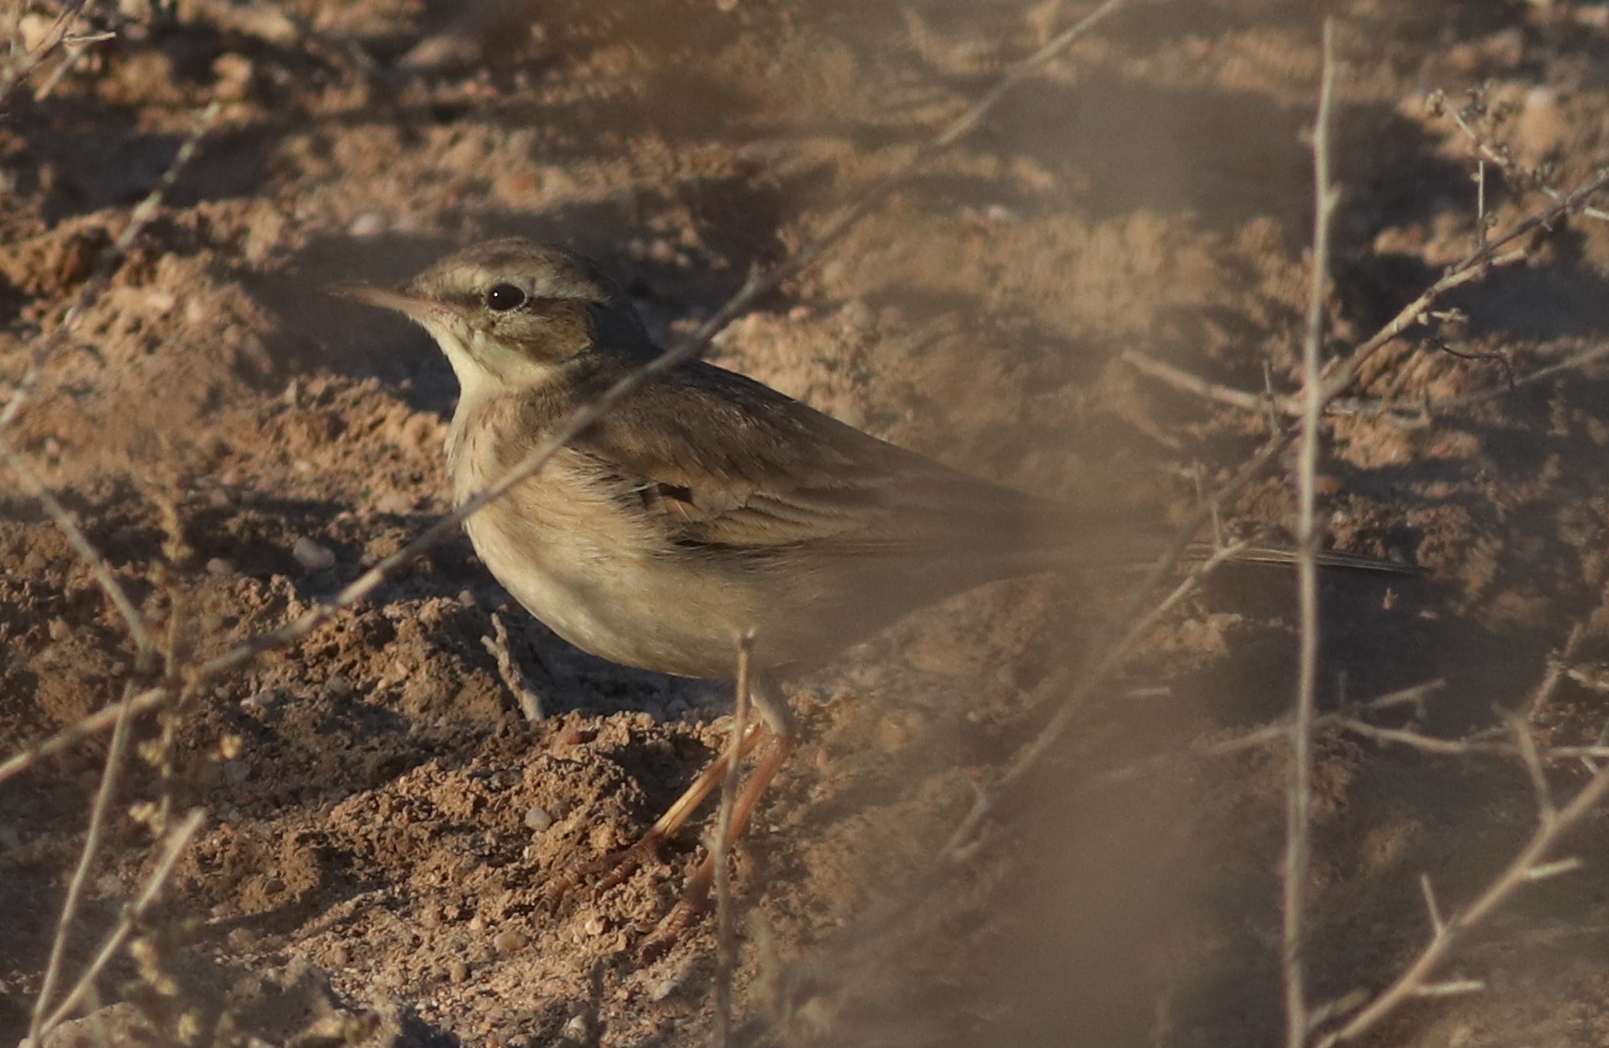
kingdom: Animalia
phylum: Chordata
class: Aves
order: Passeriformes
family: Motacillidae
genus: Anthus
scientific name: Anthus campestris
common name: Tawny pipit
